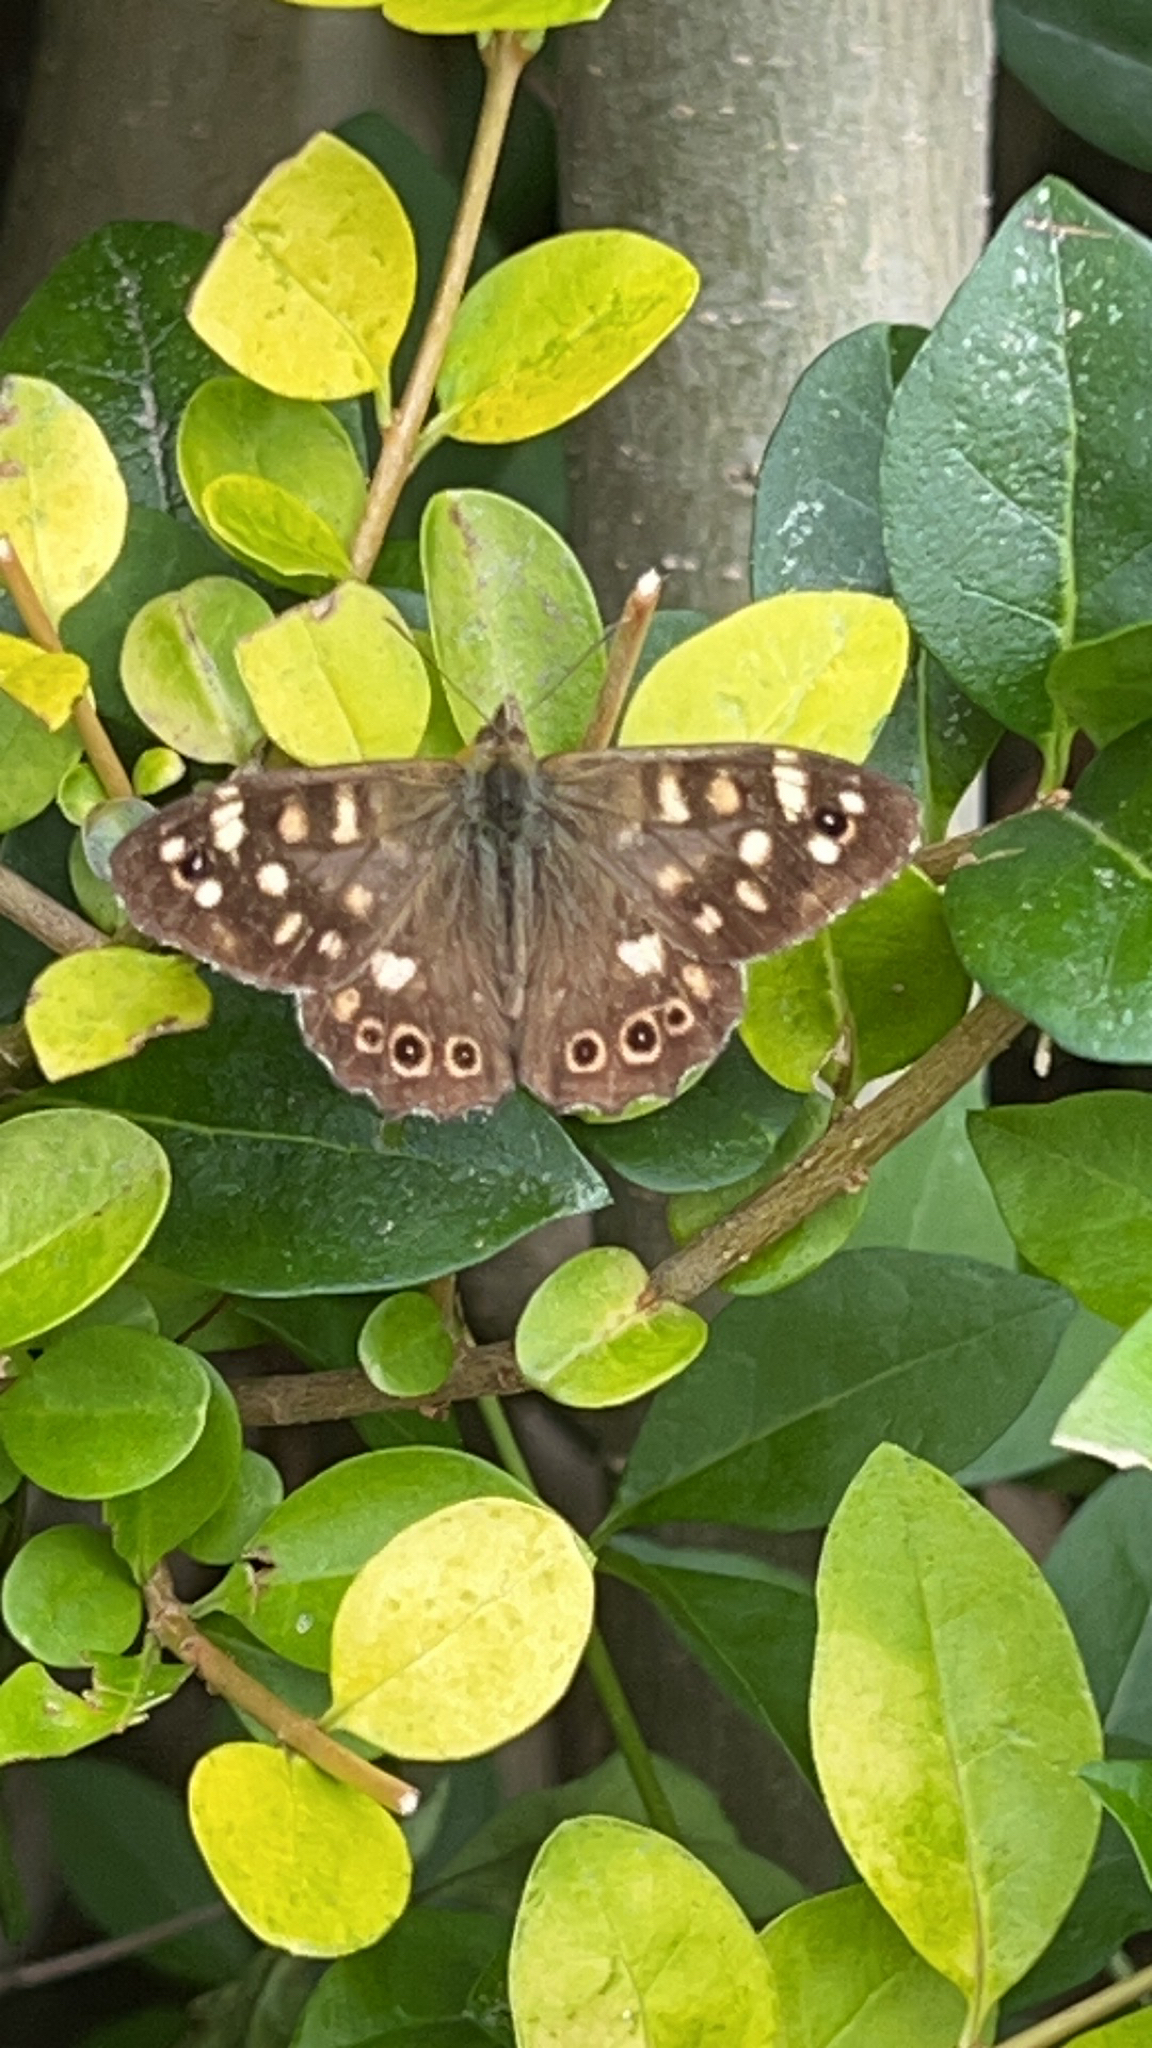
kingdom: Animalia
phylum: Arthropoda
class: Insecta
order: Lepidoptera
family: Nymphalidae
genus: Pararge
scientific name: Pararge aegeria
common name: Speckled wood
